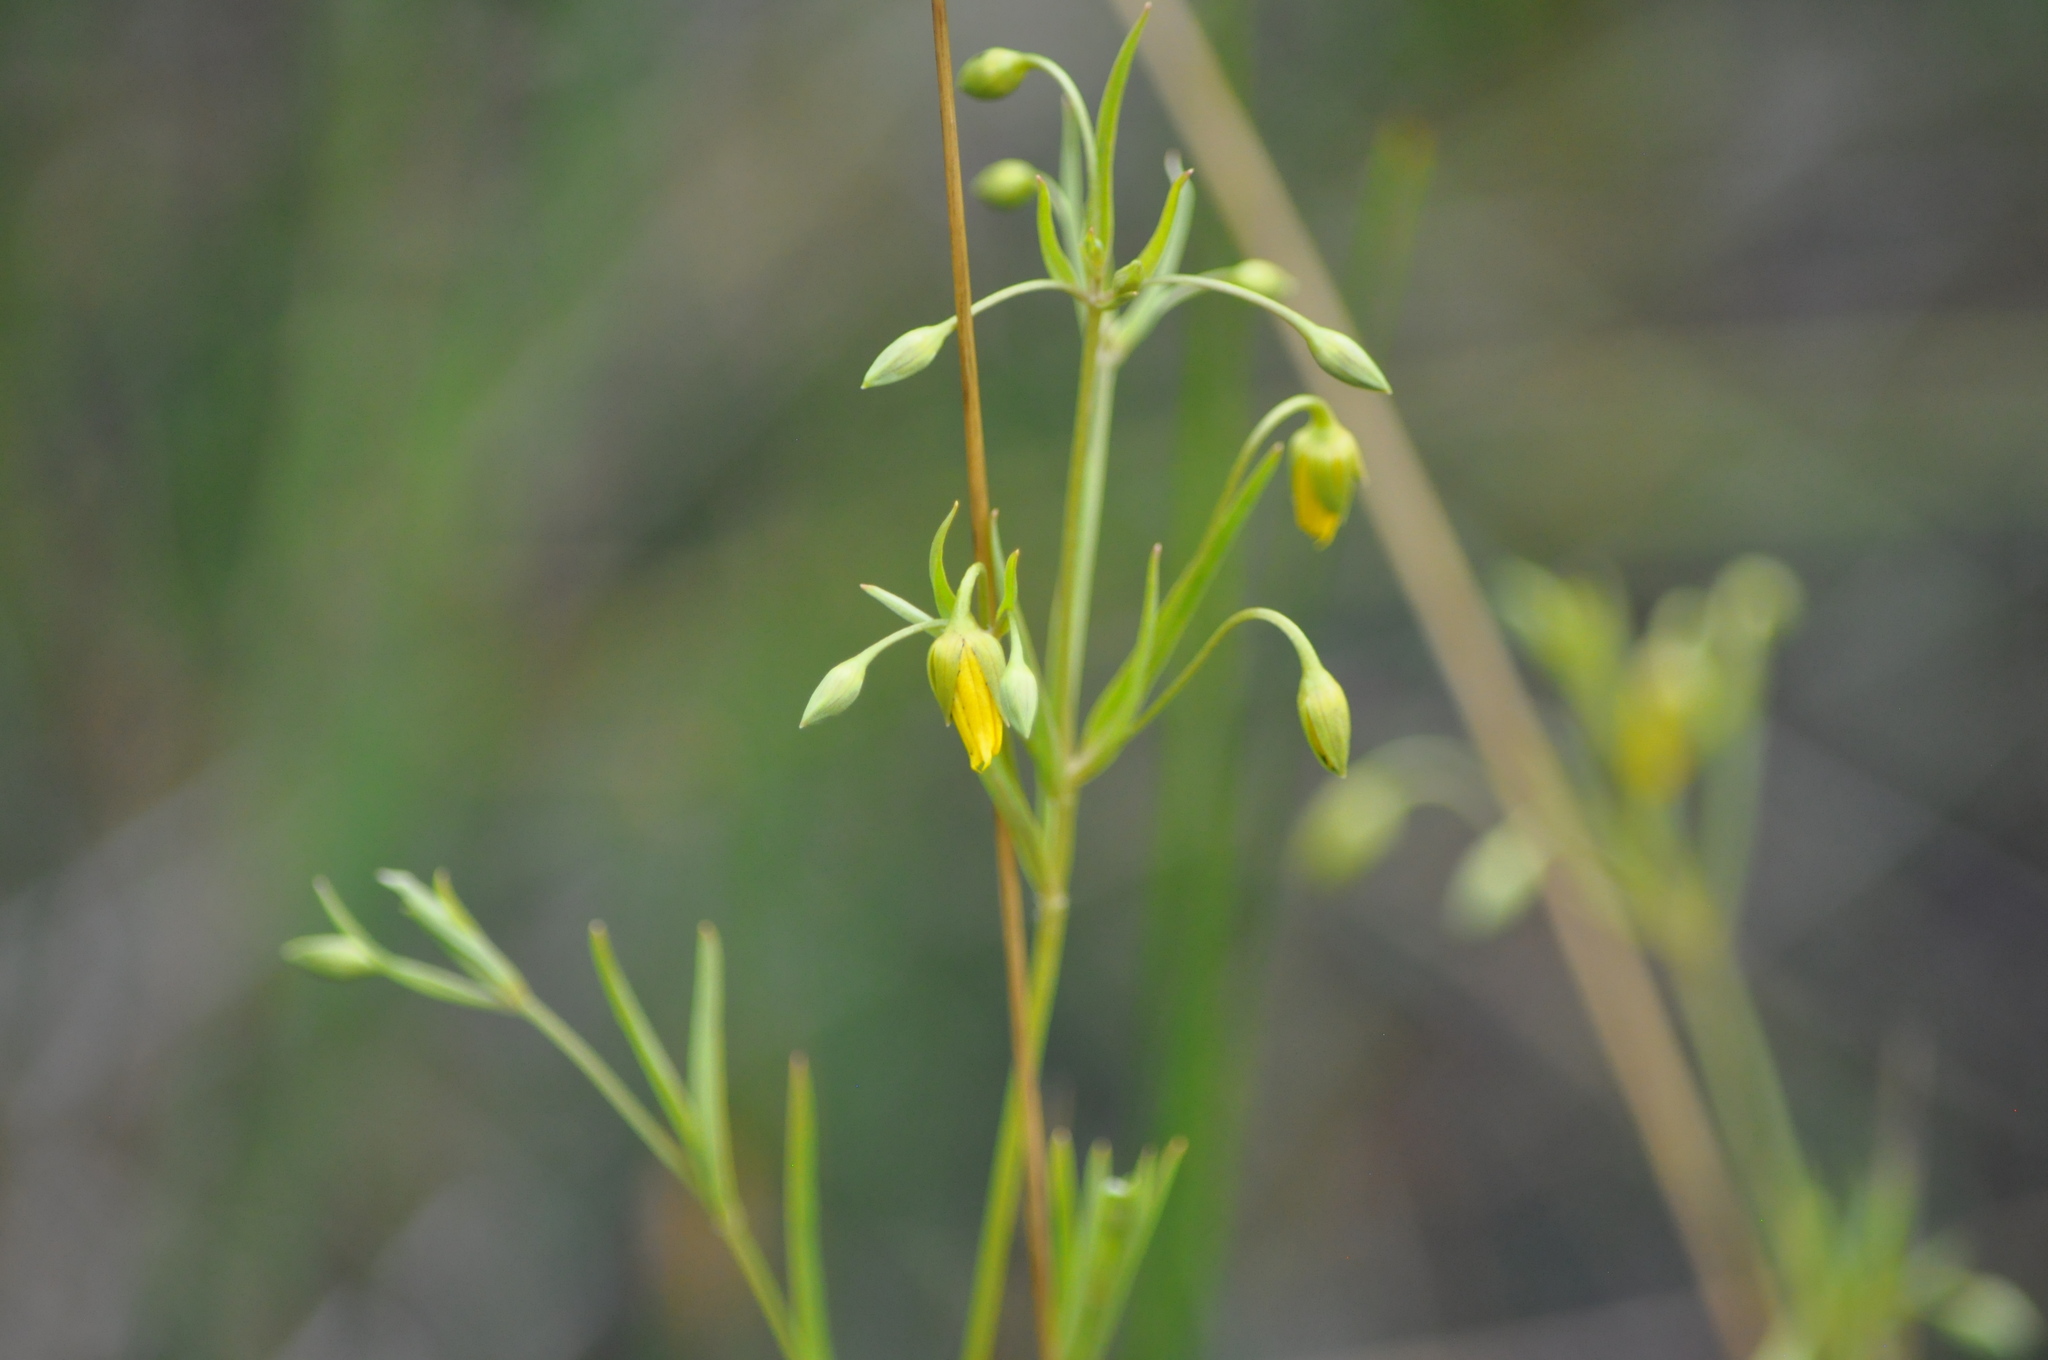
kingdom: Plantae
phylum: Tracheophyta
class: Magnoliopsida
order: Ericales
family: Primulaceae
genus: Lysimachia
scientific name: Lysimachia quadriflora
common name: Four-flowered loosestrife
